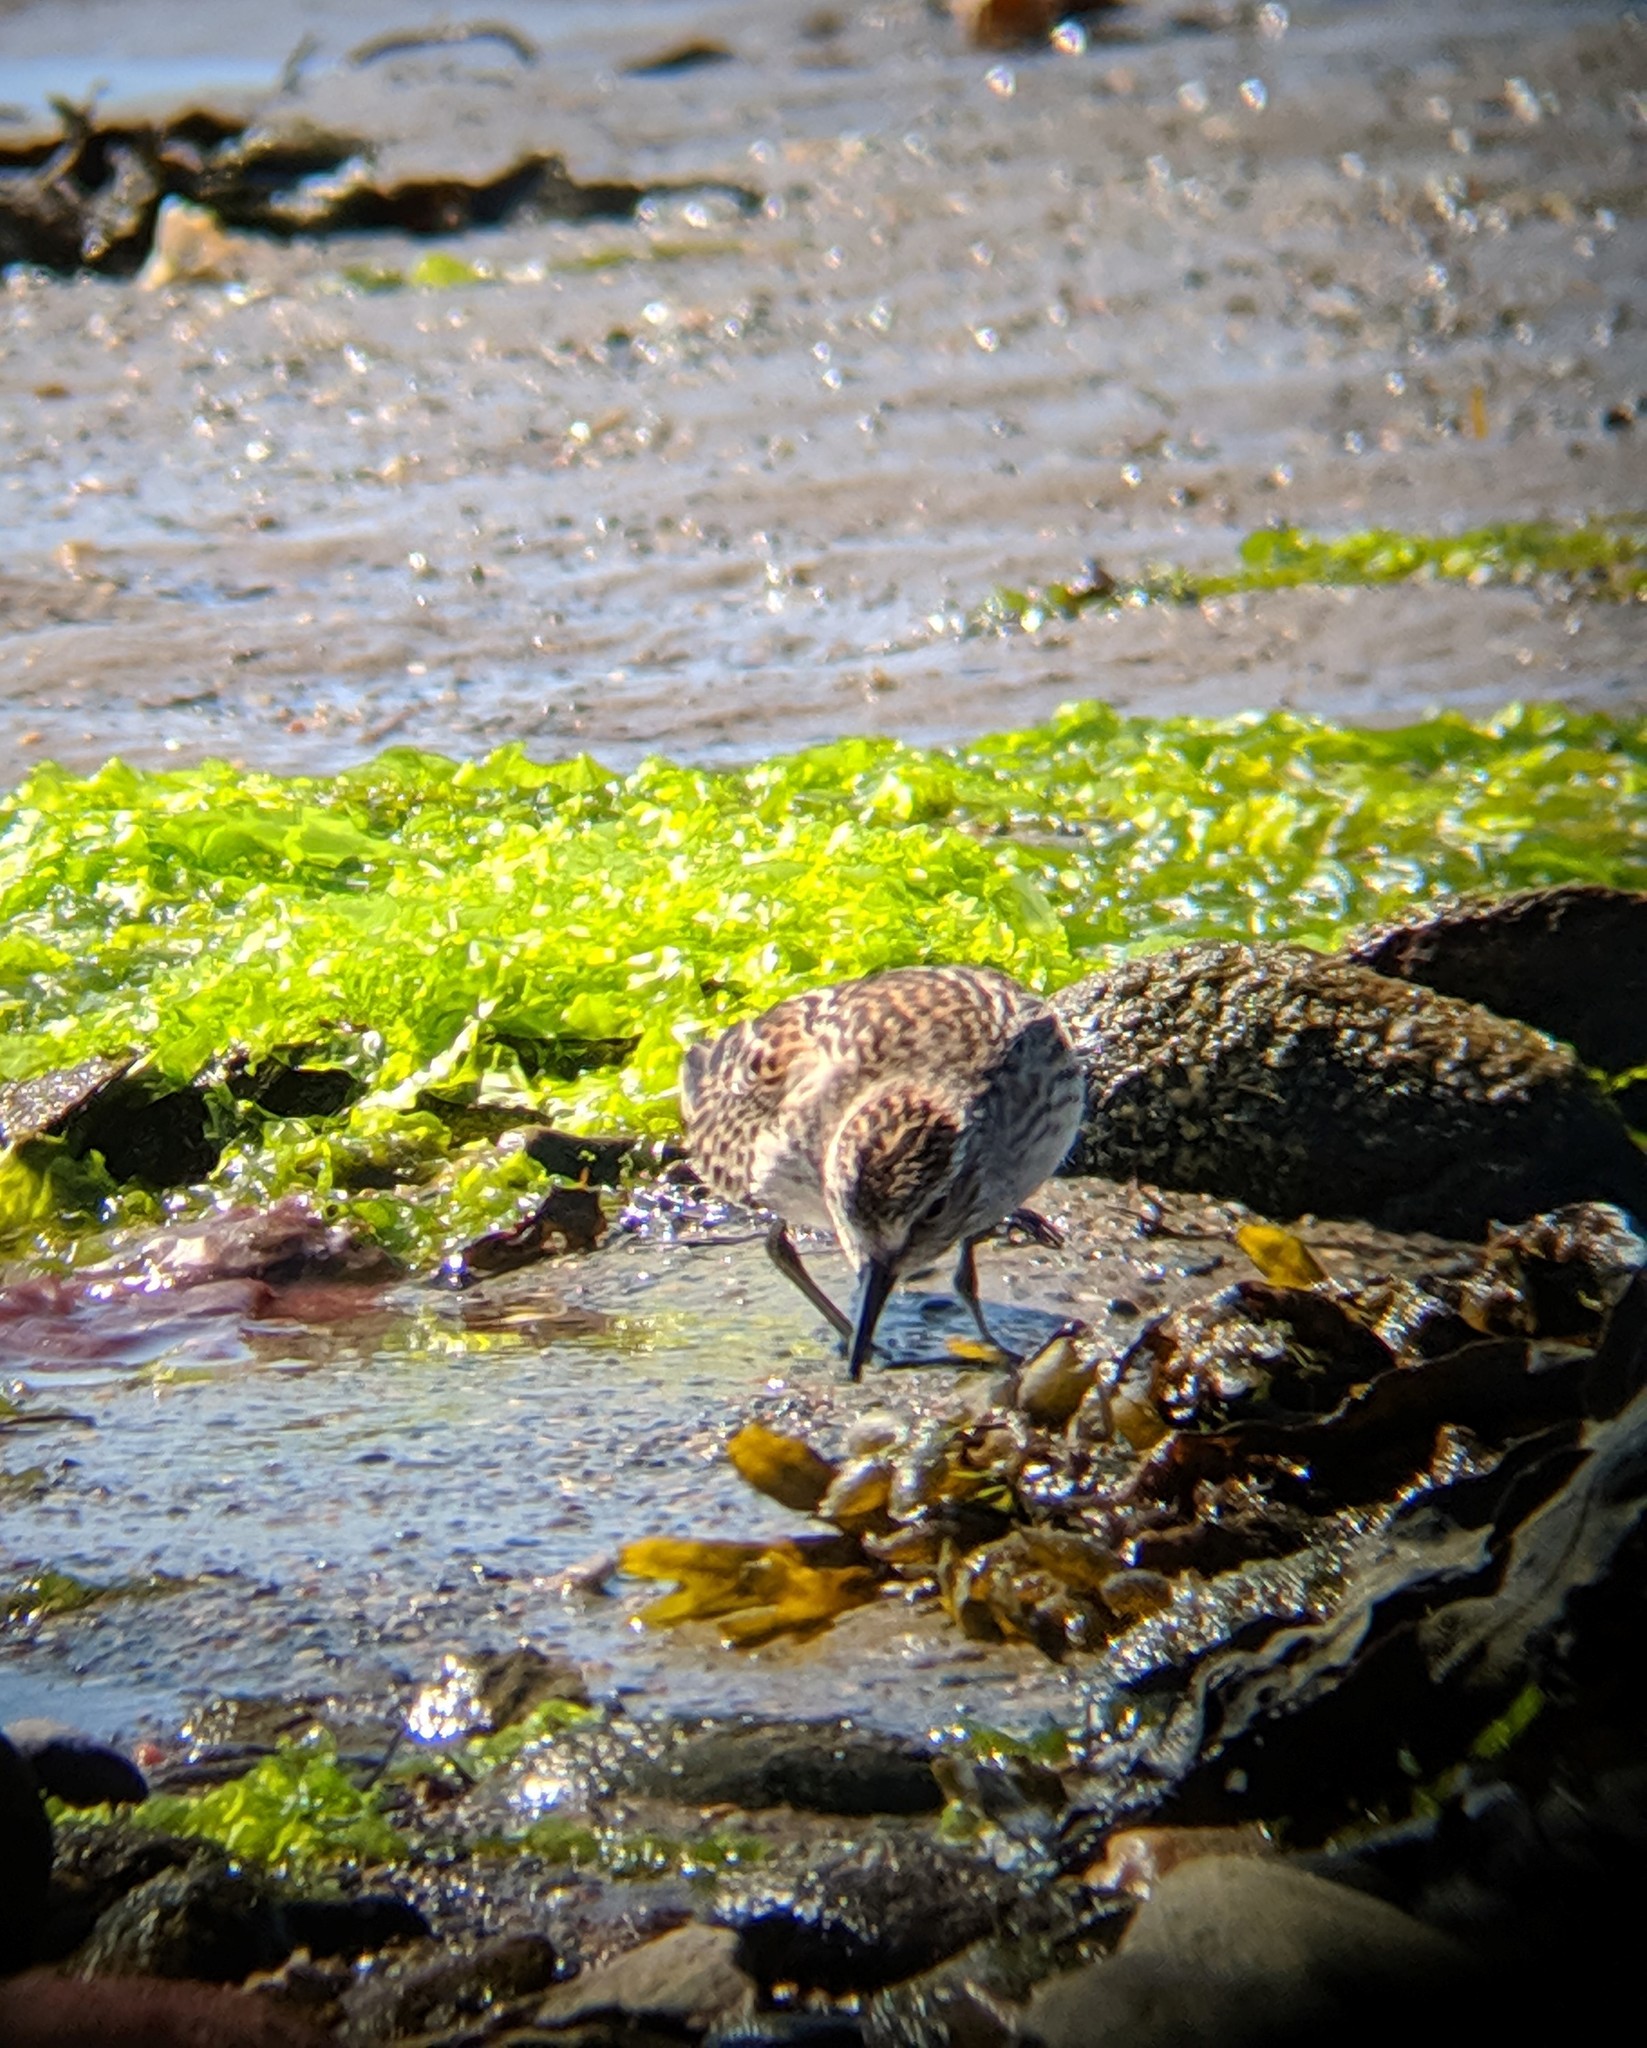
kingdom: Animalia
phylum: Chordata
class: Aves
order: Charadriiformes
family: Scolopacidae
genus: Calidris
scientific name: Calidris pusilla
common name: Semipalmated sandpiper
